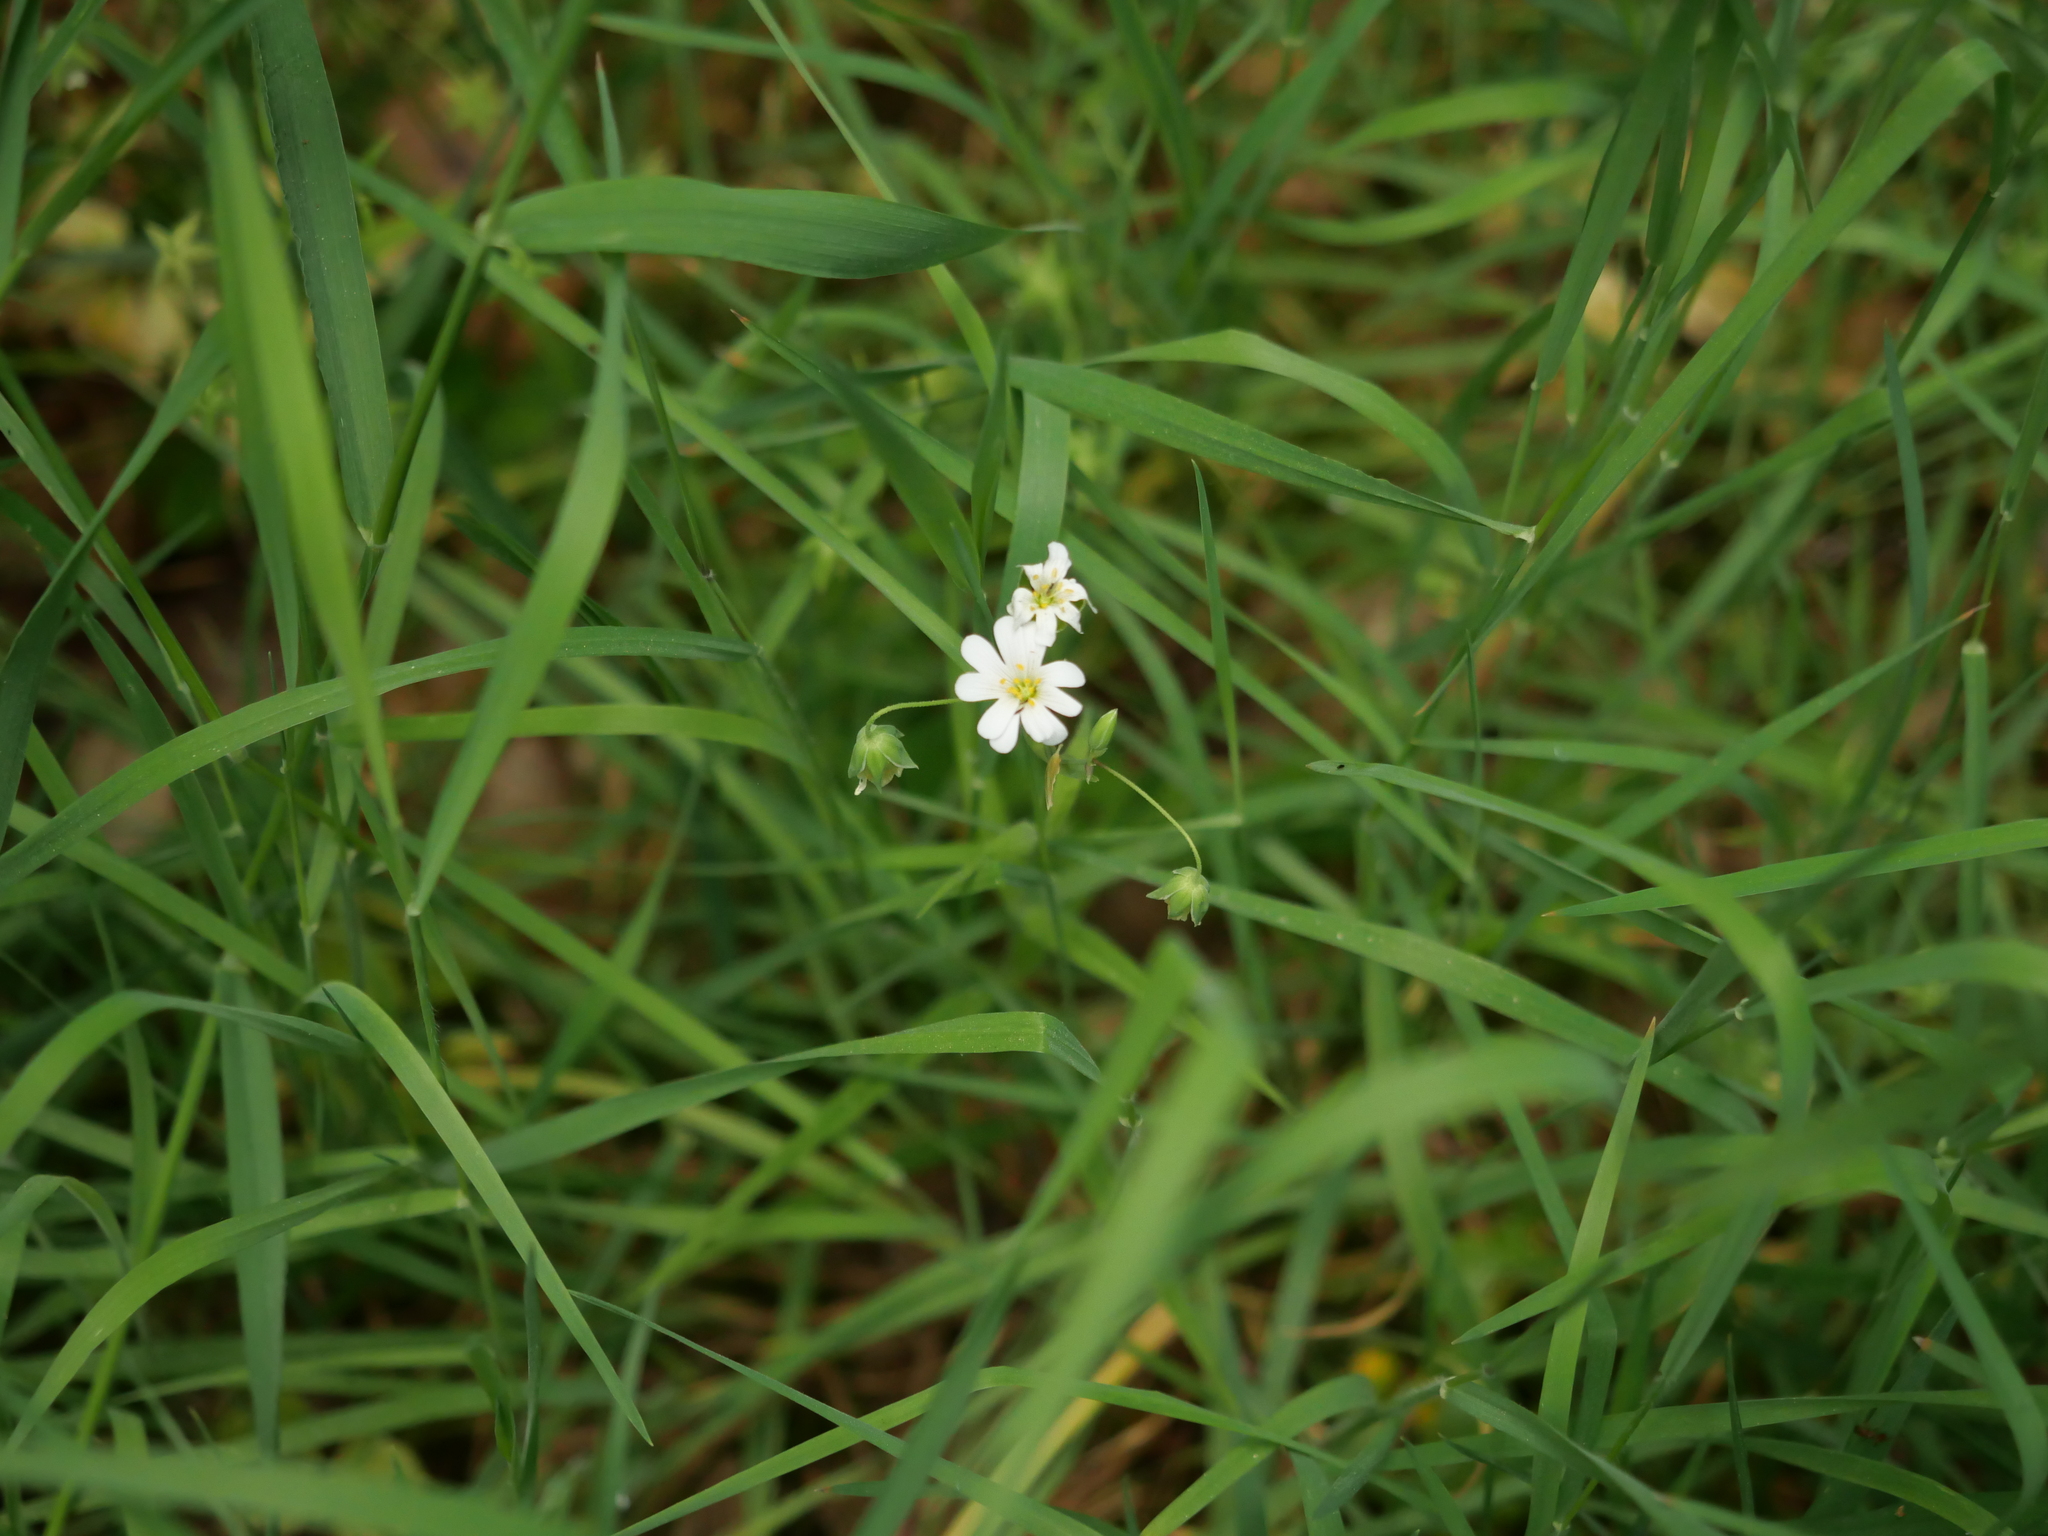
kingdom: Plantae
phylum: Tracheophyta
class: Magnoliopsida
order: Caryophyllales
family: Caryophyllaceae
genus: Rabelera
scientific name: Rabelera holostea
